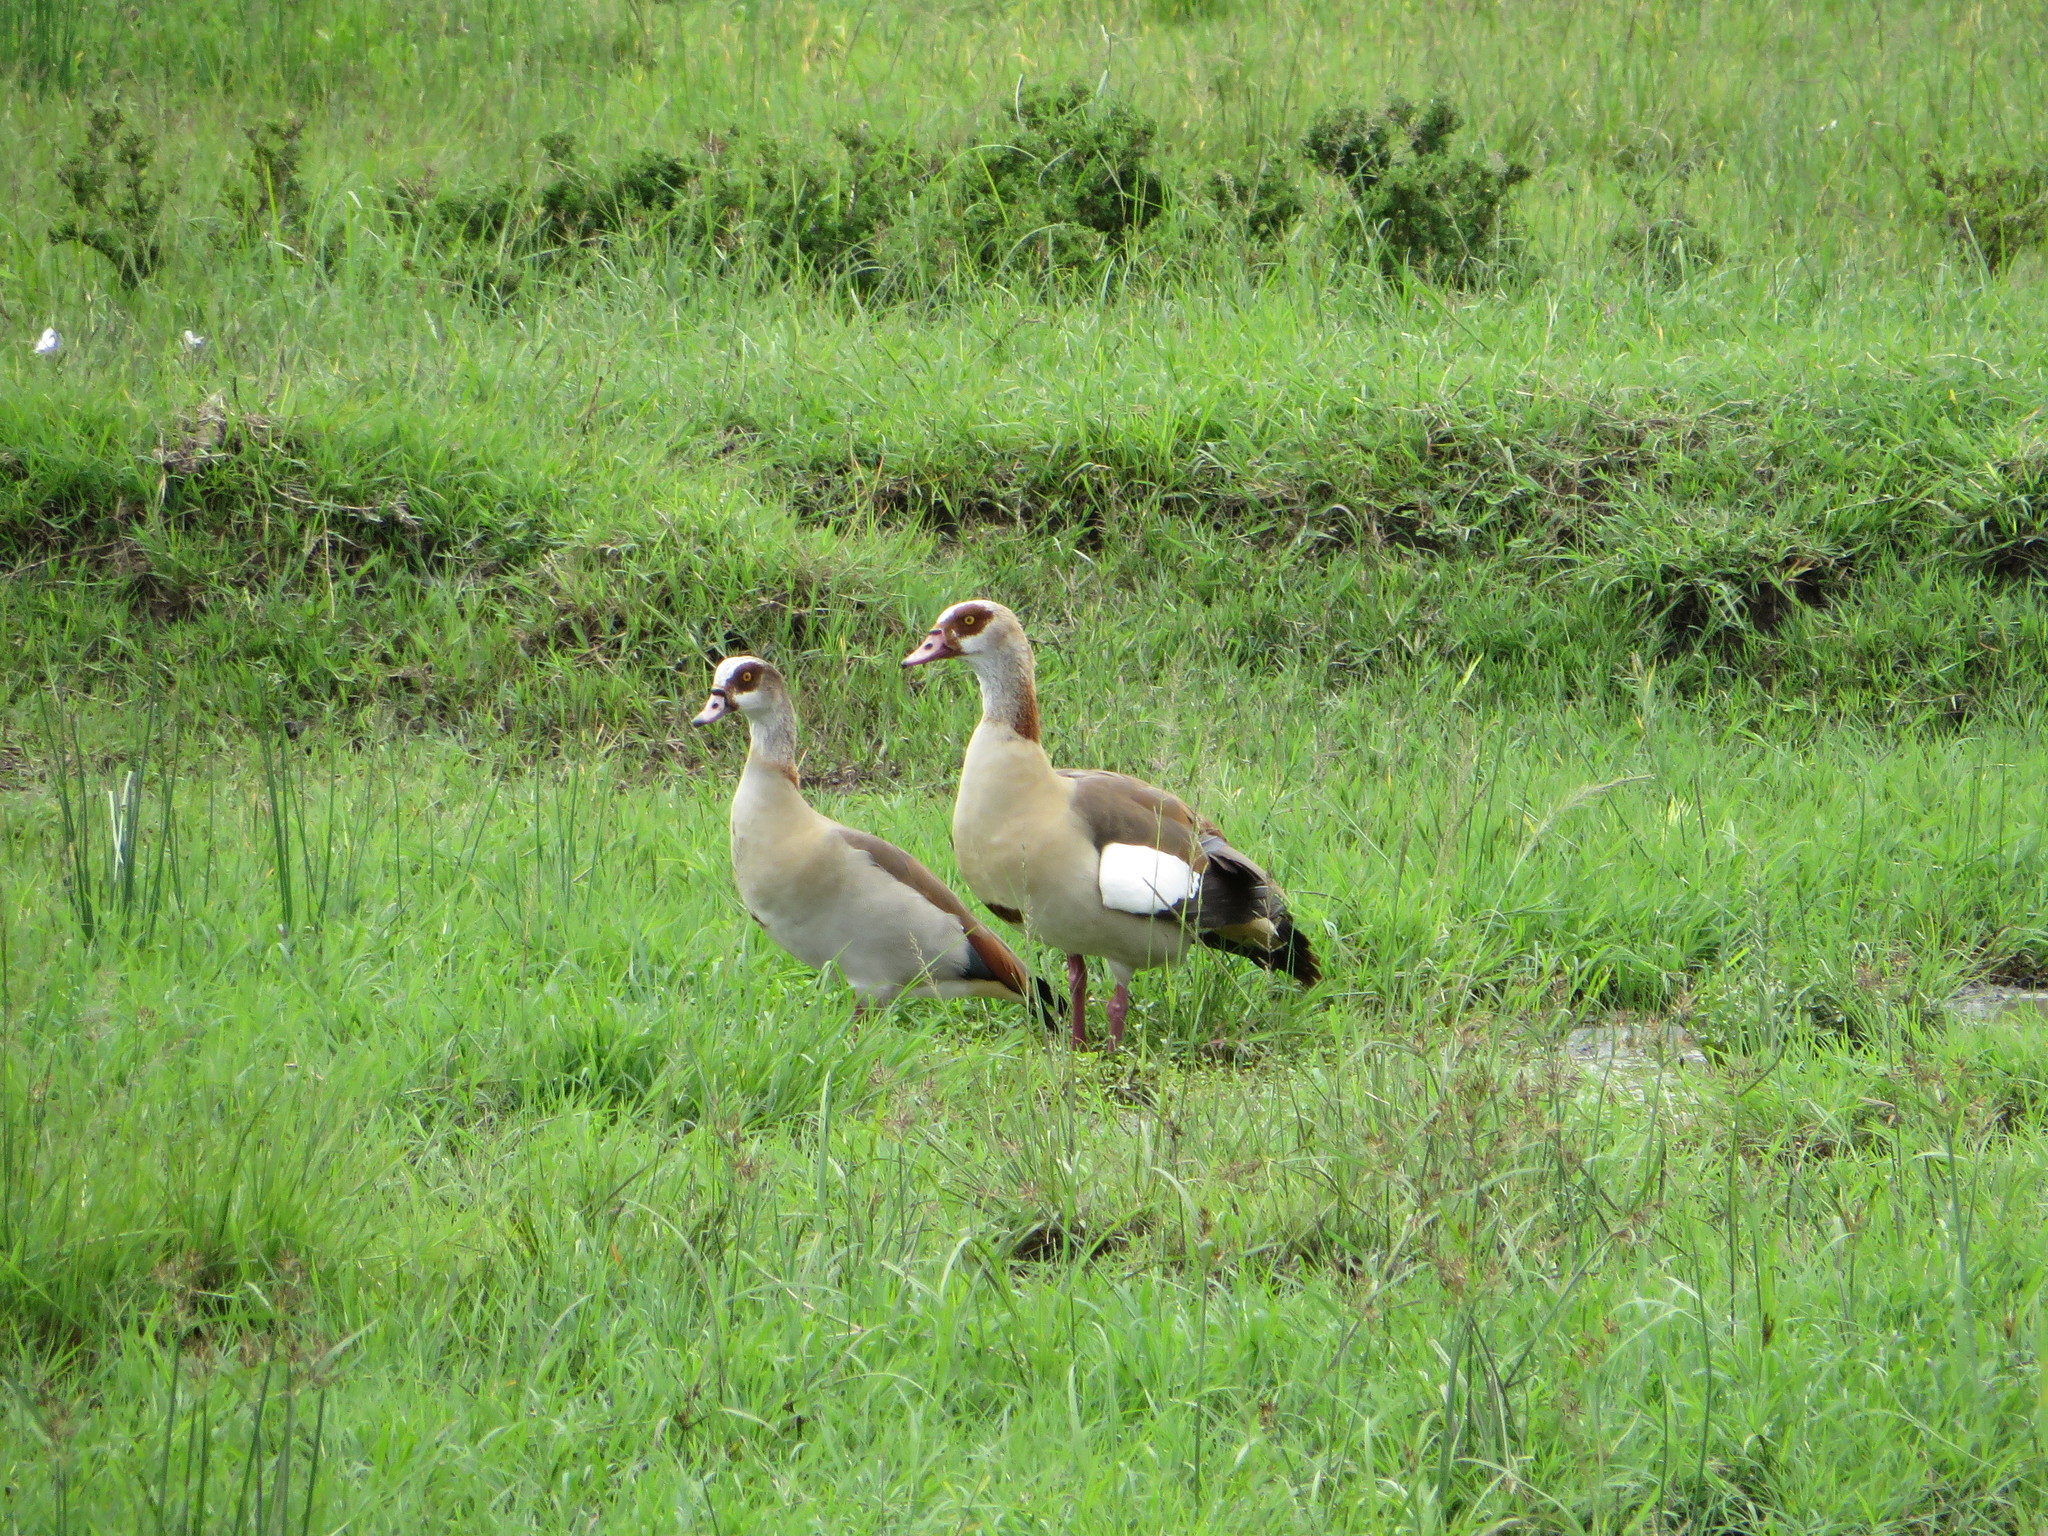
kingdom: Animalia
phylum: Chordata
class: Aves
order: Anseriformes
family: Anatidae
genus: Alopochen
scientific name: Alopochen aegyptiaca
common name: Egyptian goose
